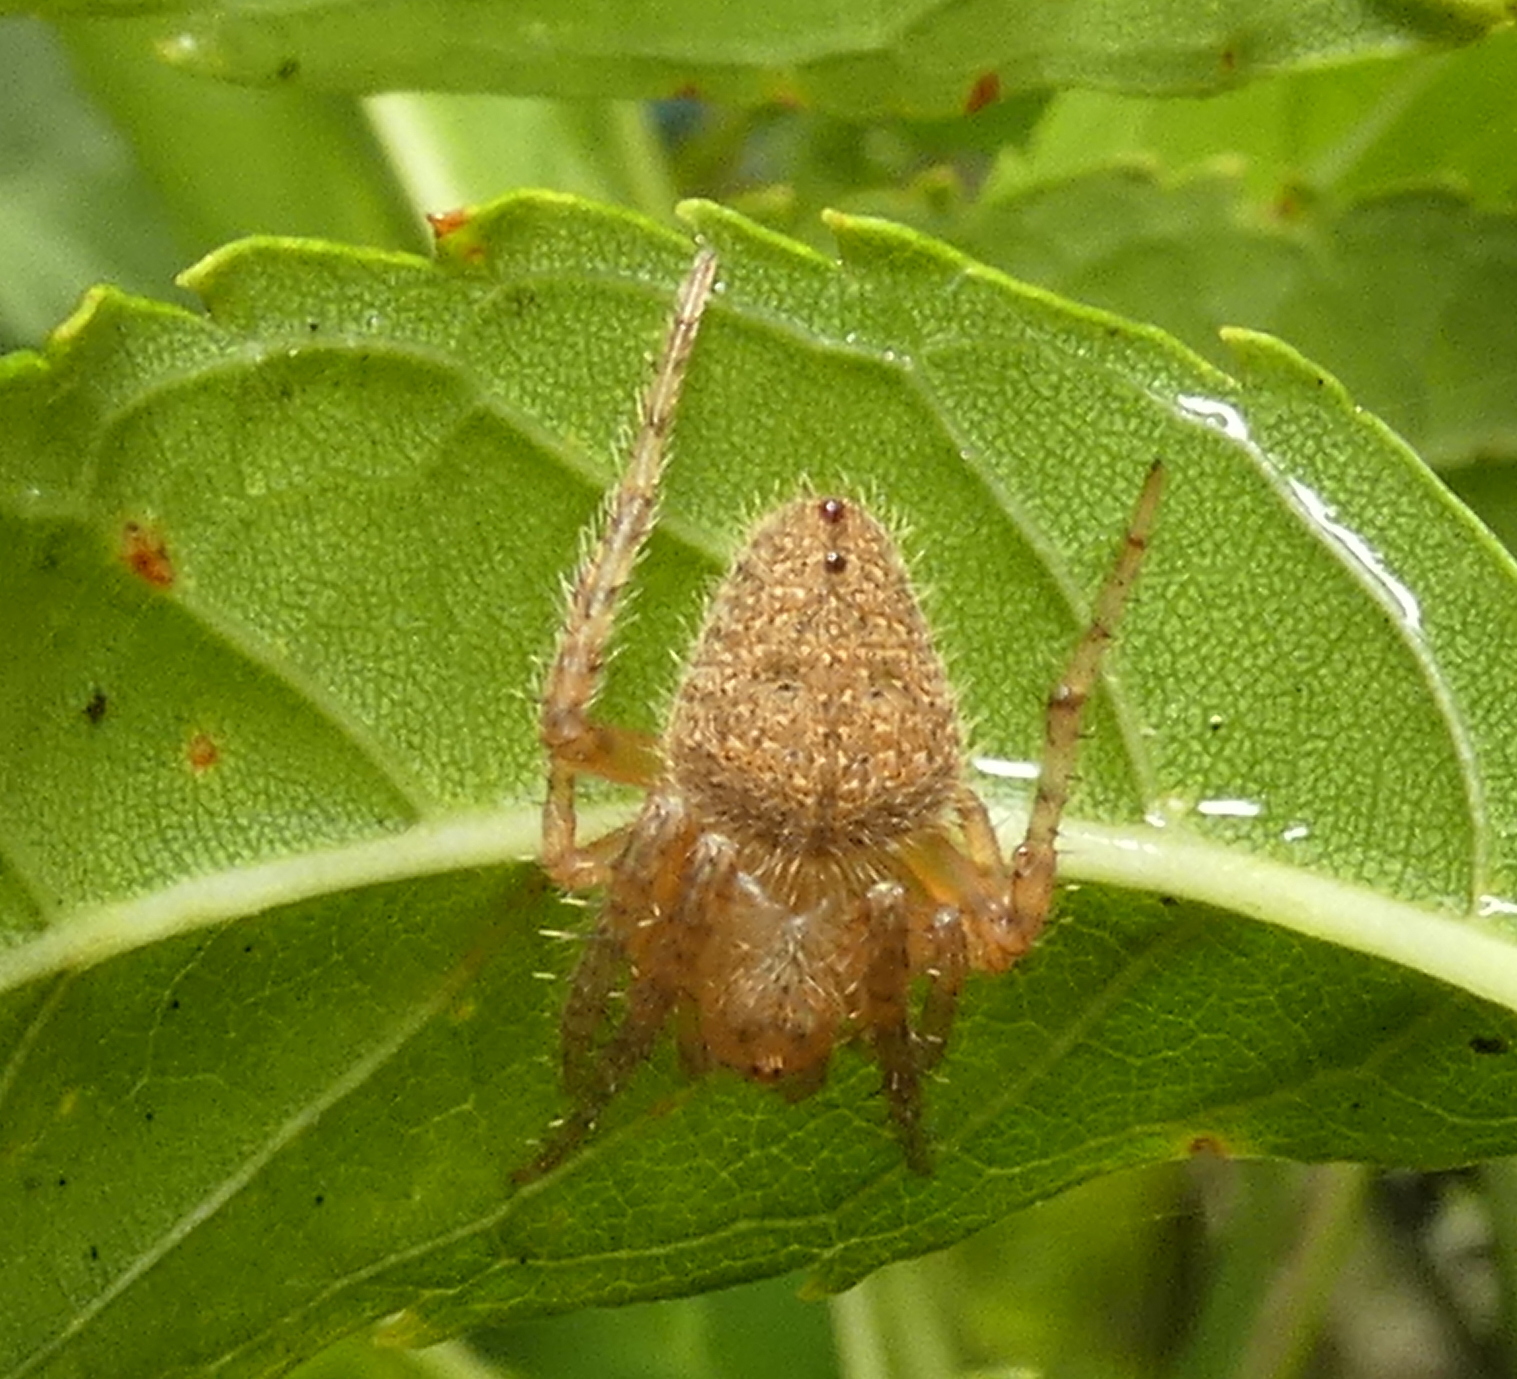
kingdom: Animalia
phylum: Arthropoda
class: Arachnida
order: Araneae
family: Araneidae
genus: Eriophora
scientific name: Eriophora edax
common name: Orb weavers
